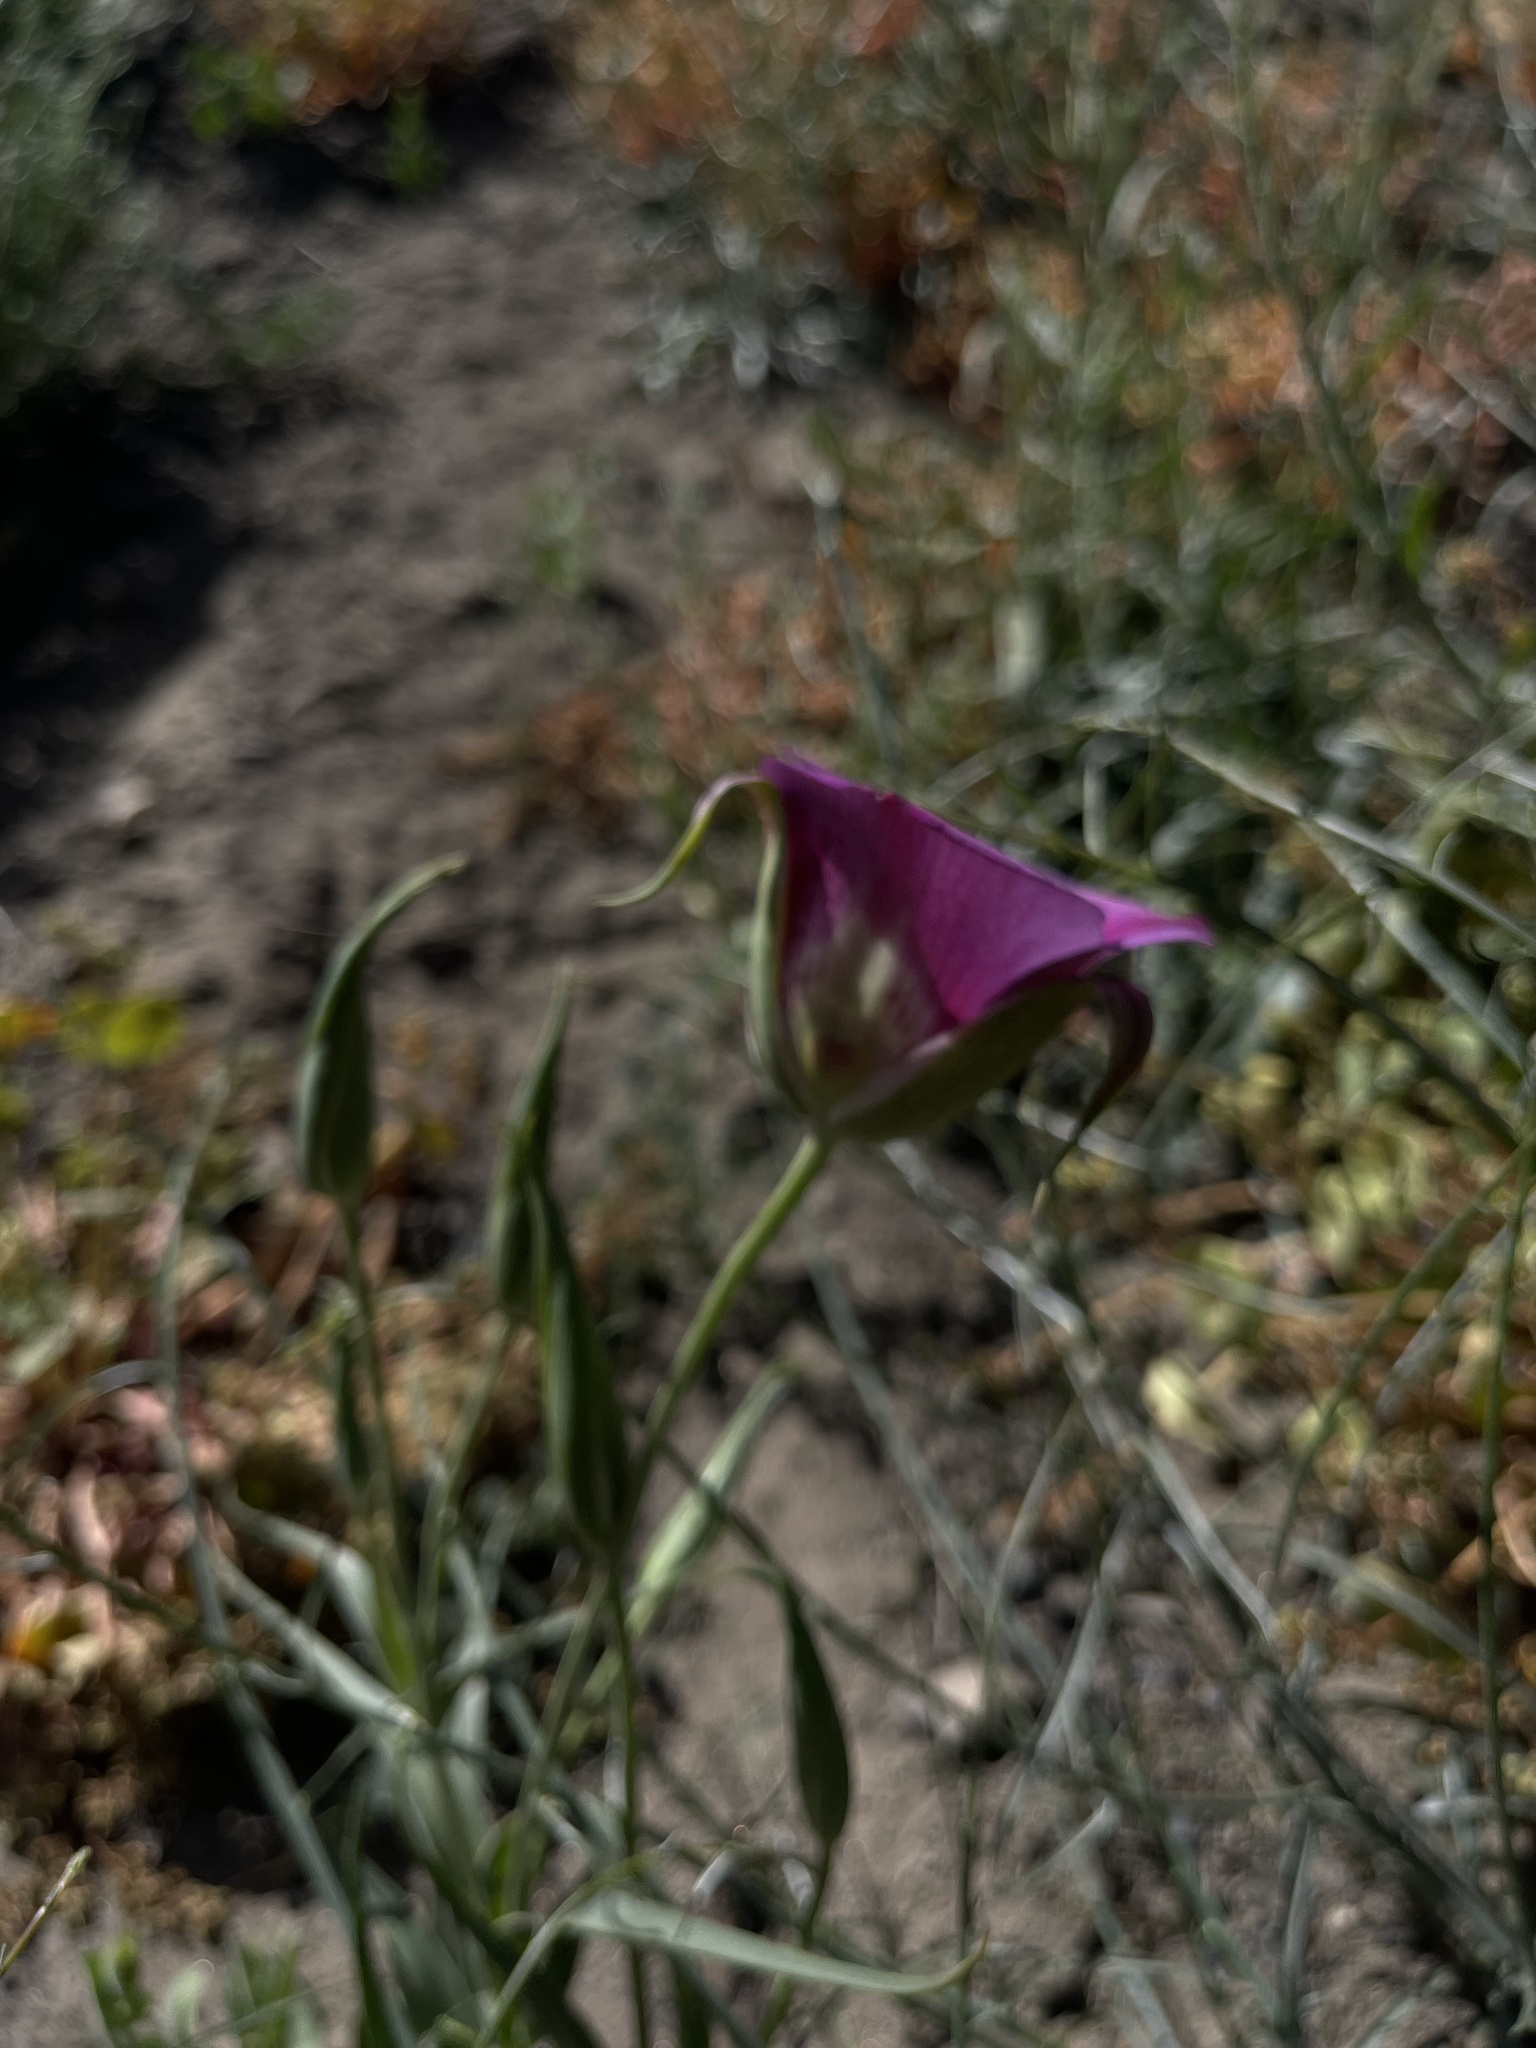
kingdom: Plantae
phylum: Tracheophyta
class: Liliopsida
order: Liliales
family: Liliaceae
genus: Calochortus
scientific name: Calochortus venustus
